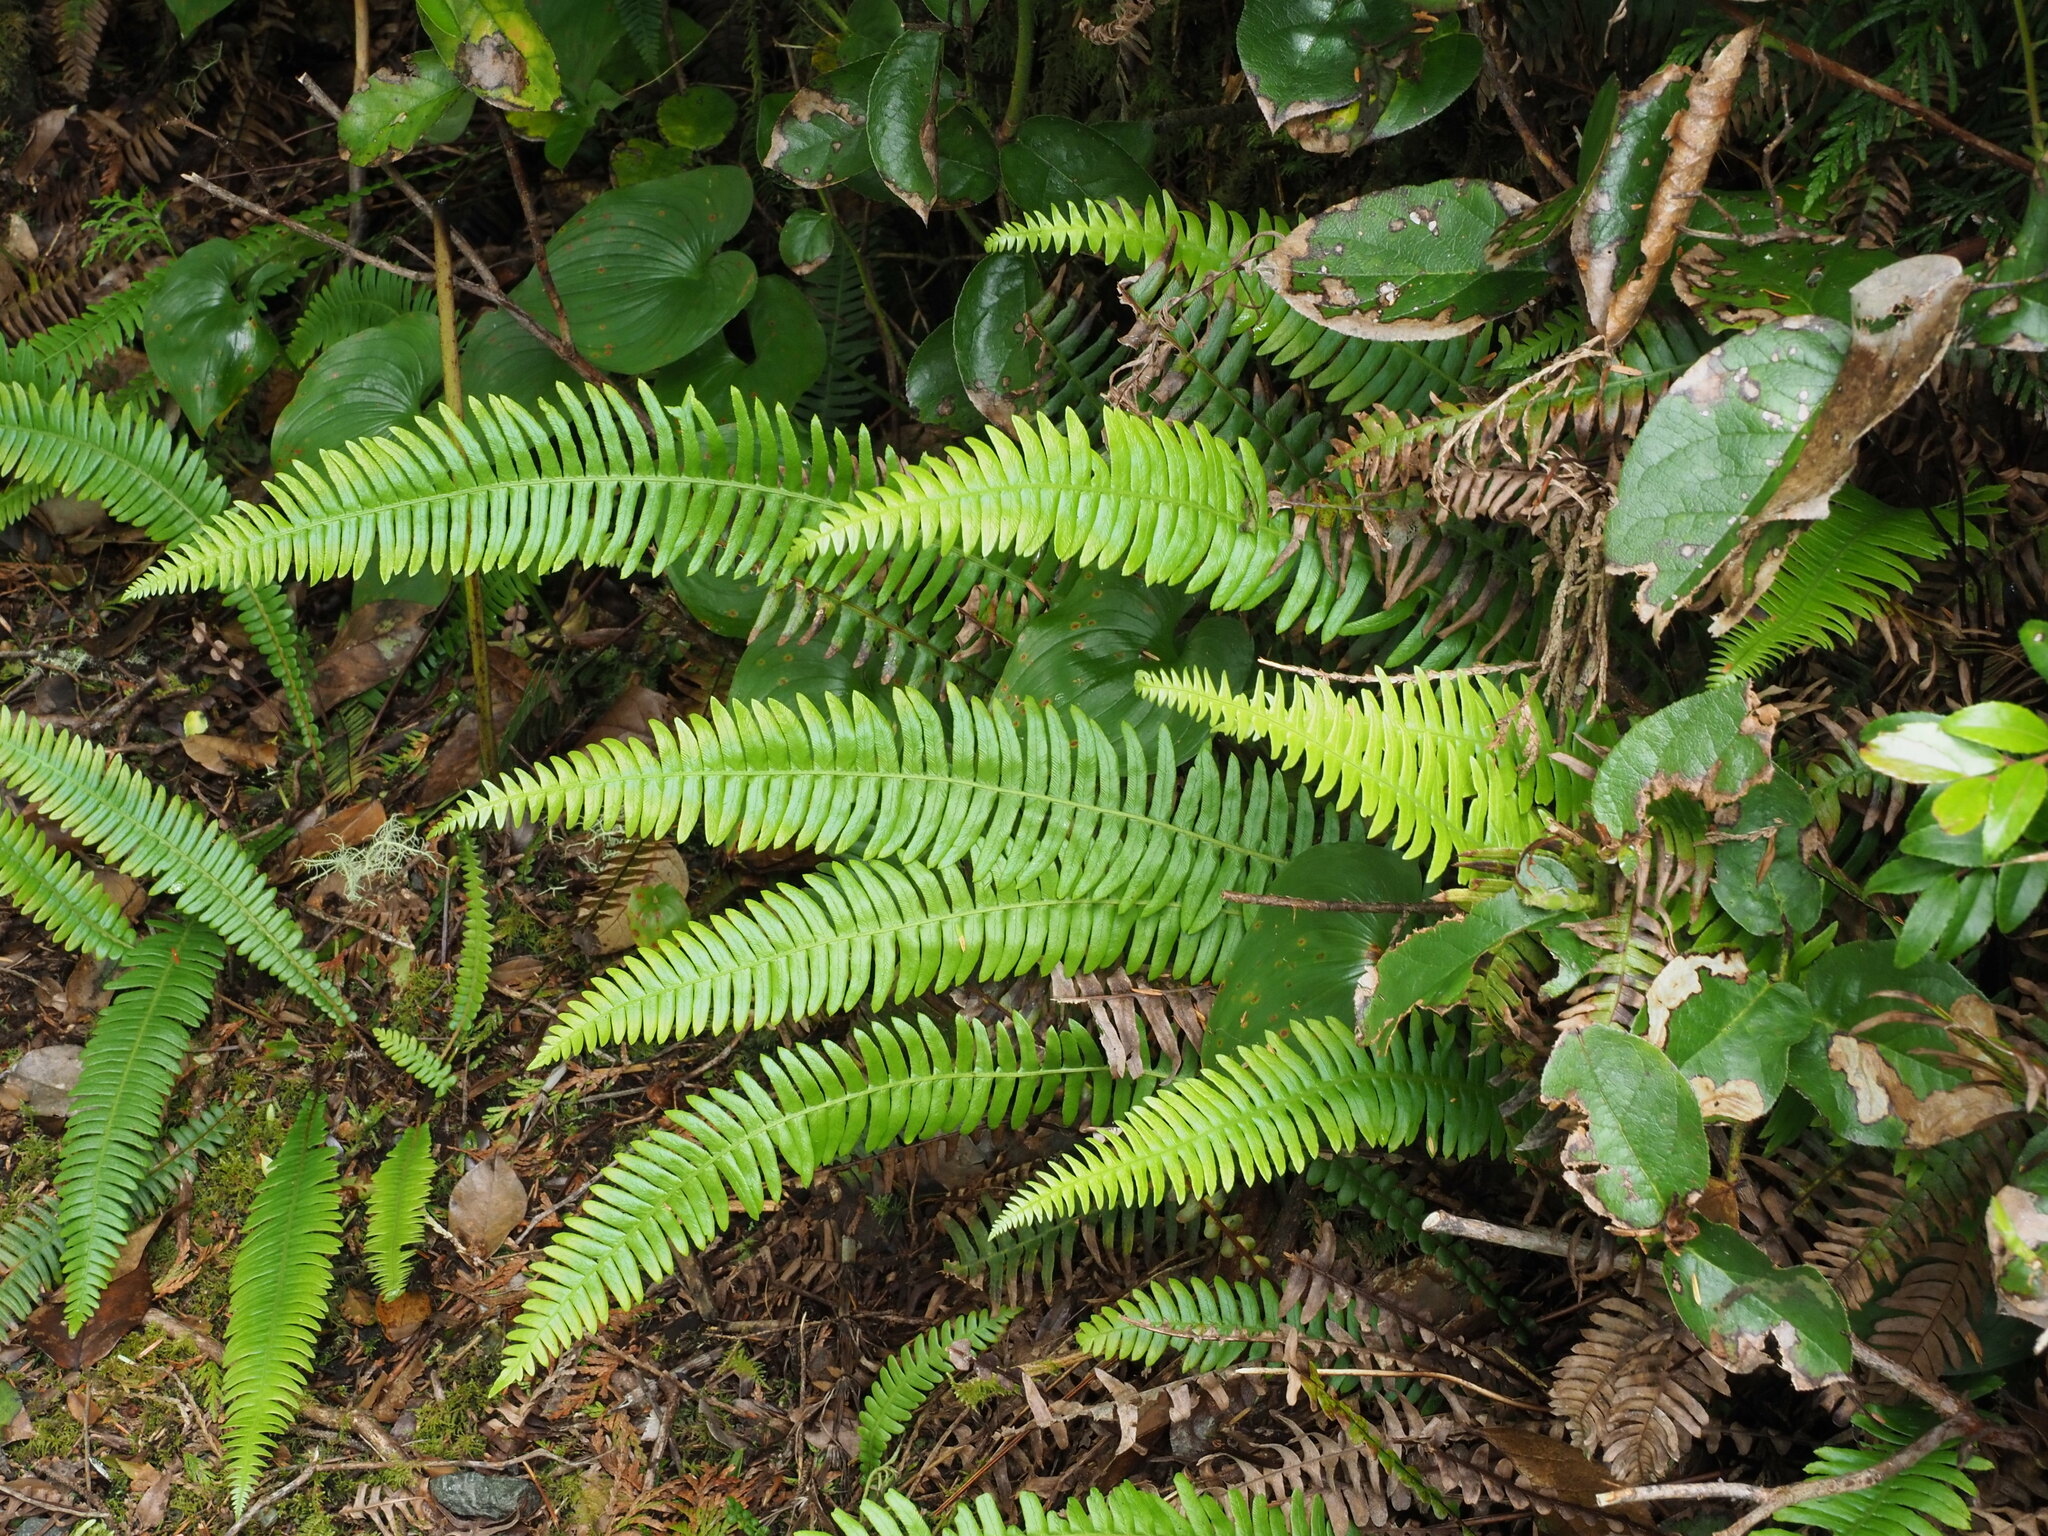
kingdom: Plantae
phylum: Tracheophyta
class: Polypodiopsida
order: Polypodiales
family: Blechnaceae
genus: Struthiopteris
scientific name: Struthiopteris spicant
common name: Deer fern
